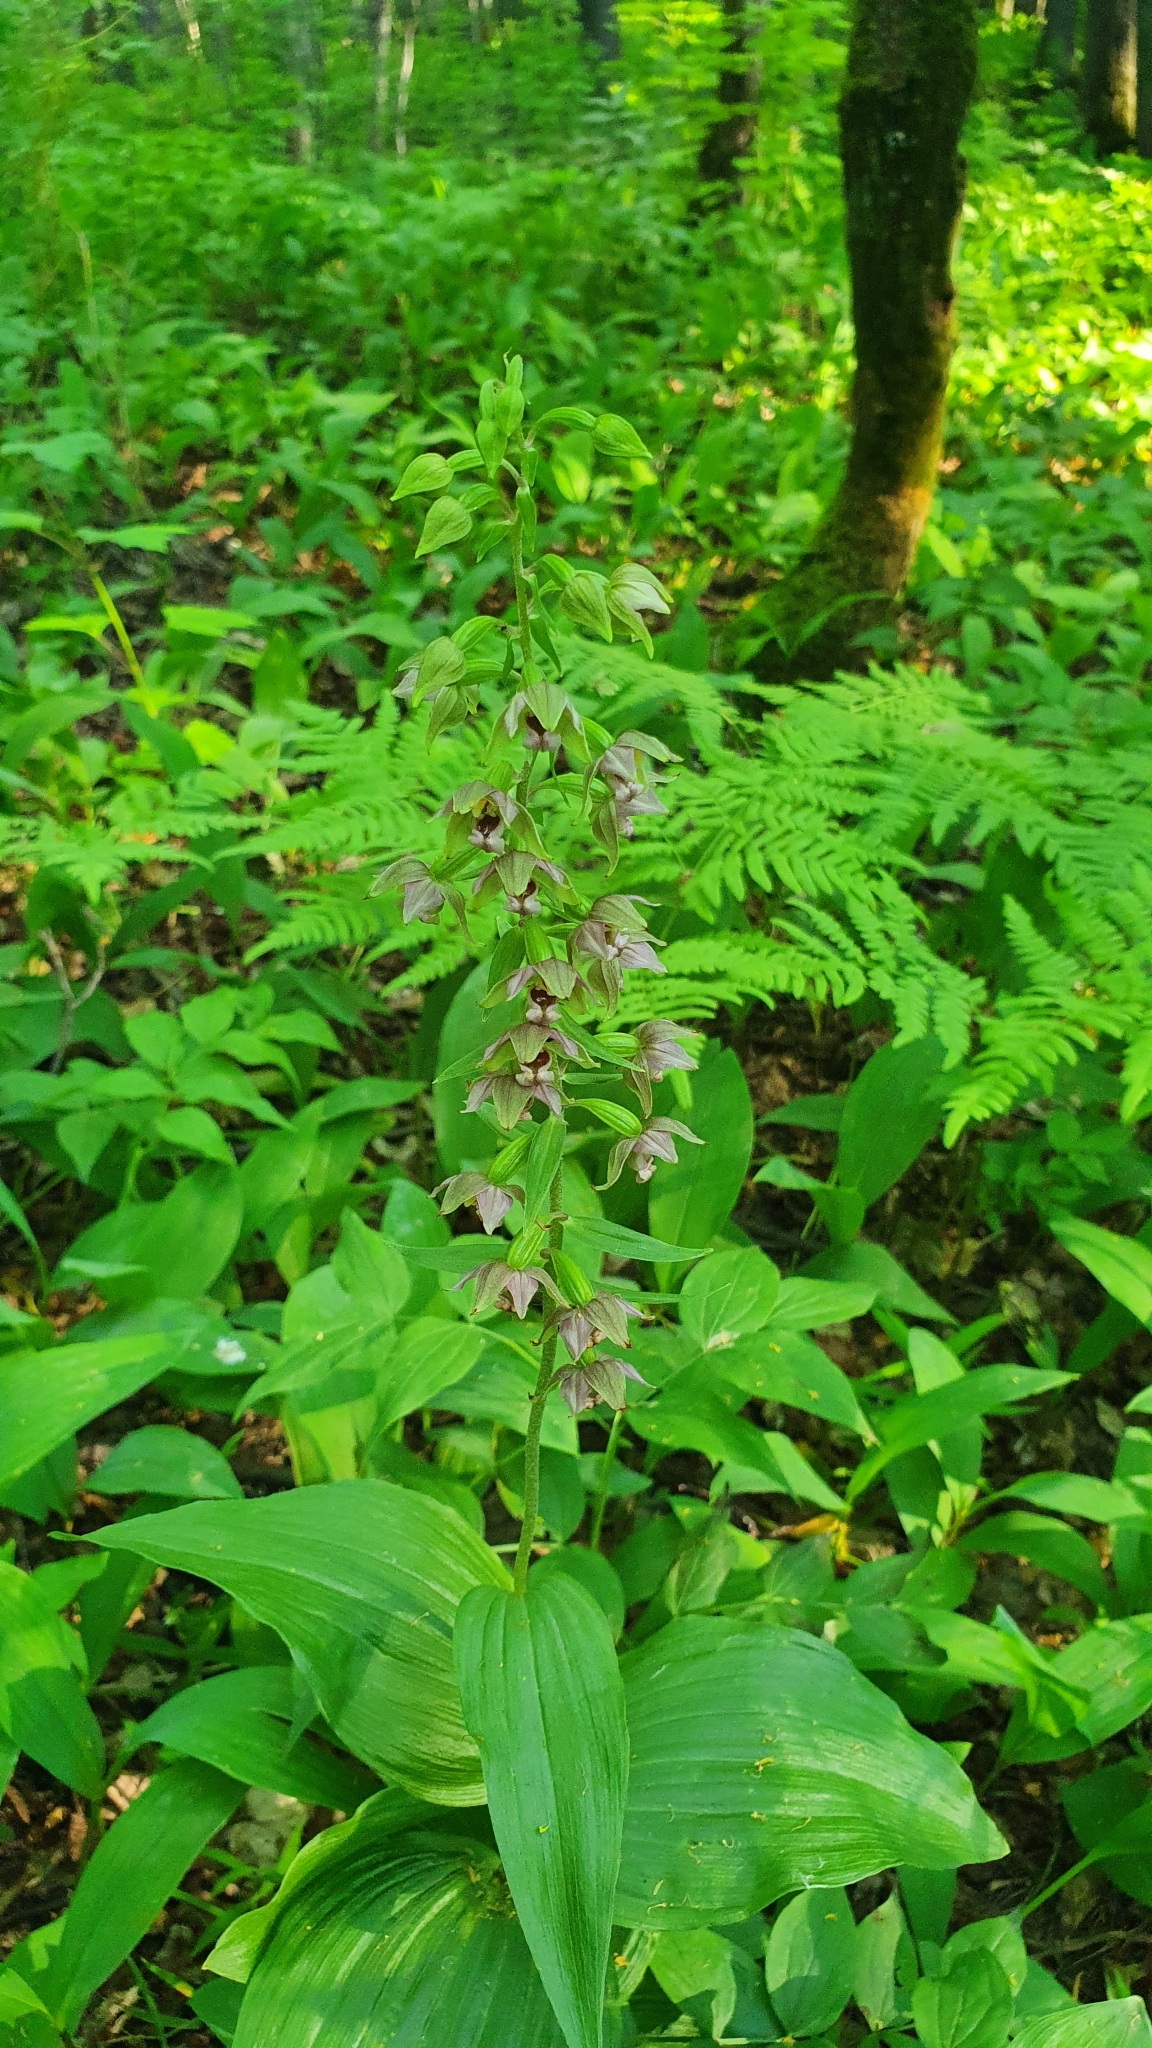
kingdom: Plantae
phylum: Tracheophyta
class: Liliopsida
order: Asparagales
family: Orchidaceae
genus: Epipactis
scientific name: Epipactis helleborine
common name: Broad-leaved helleborine
